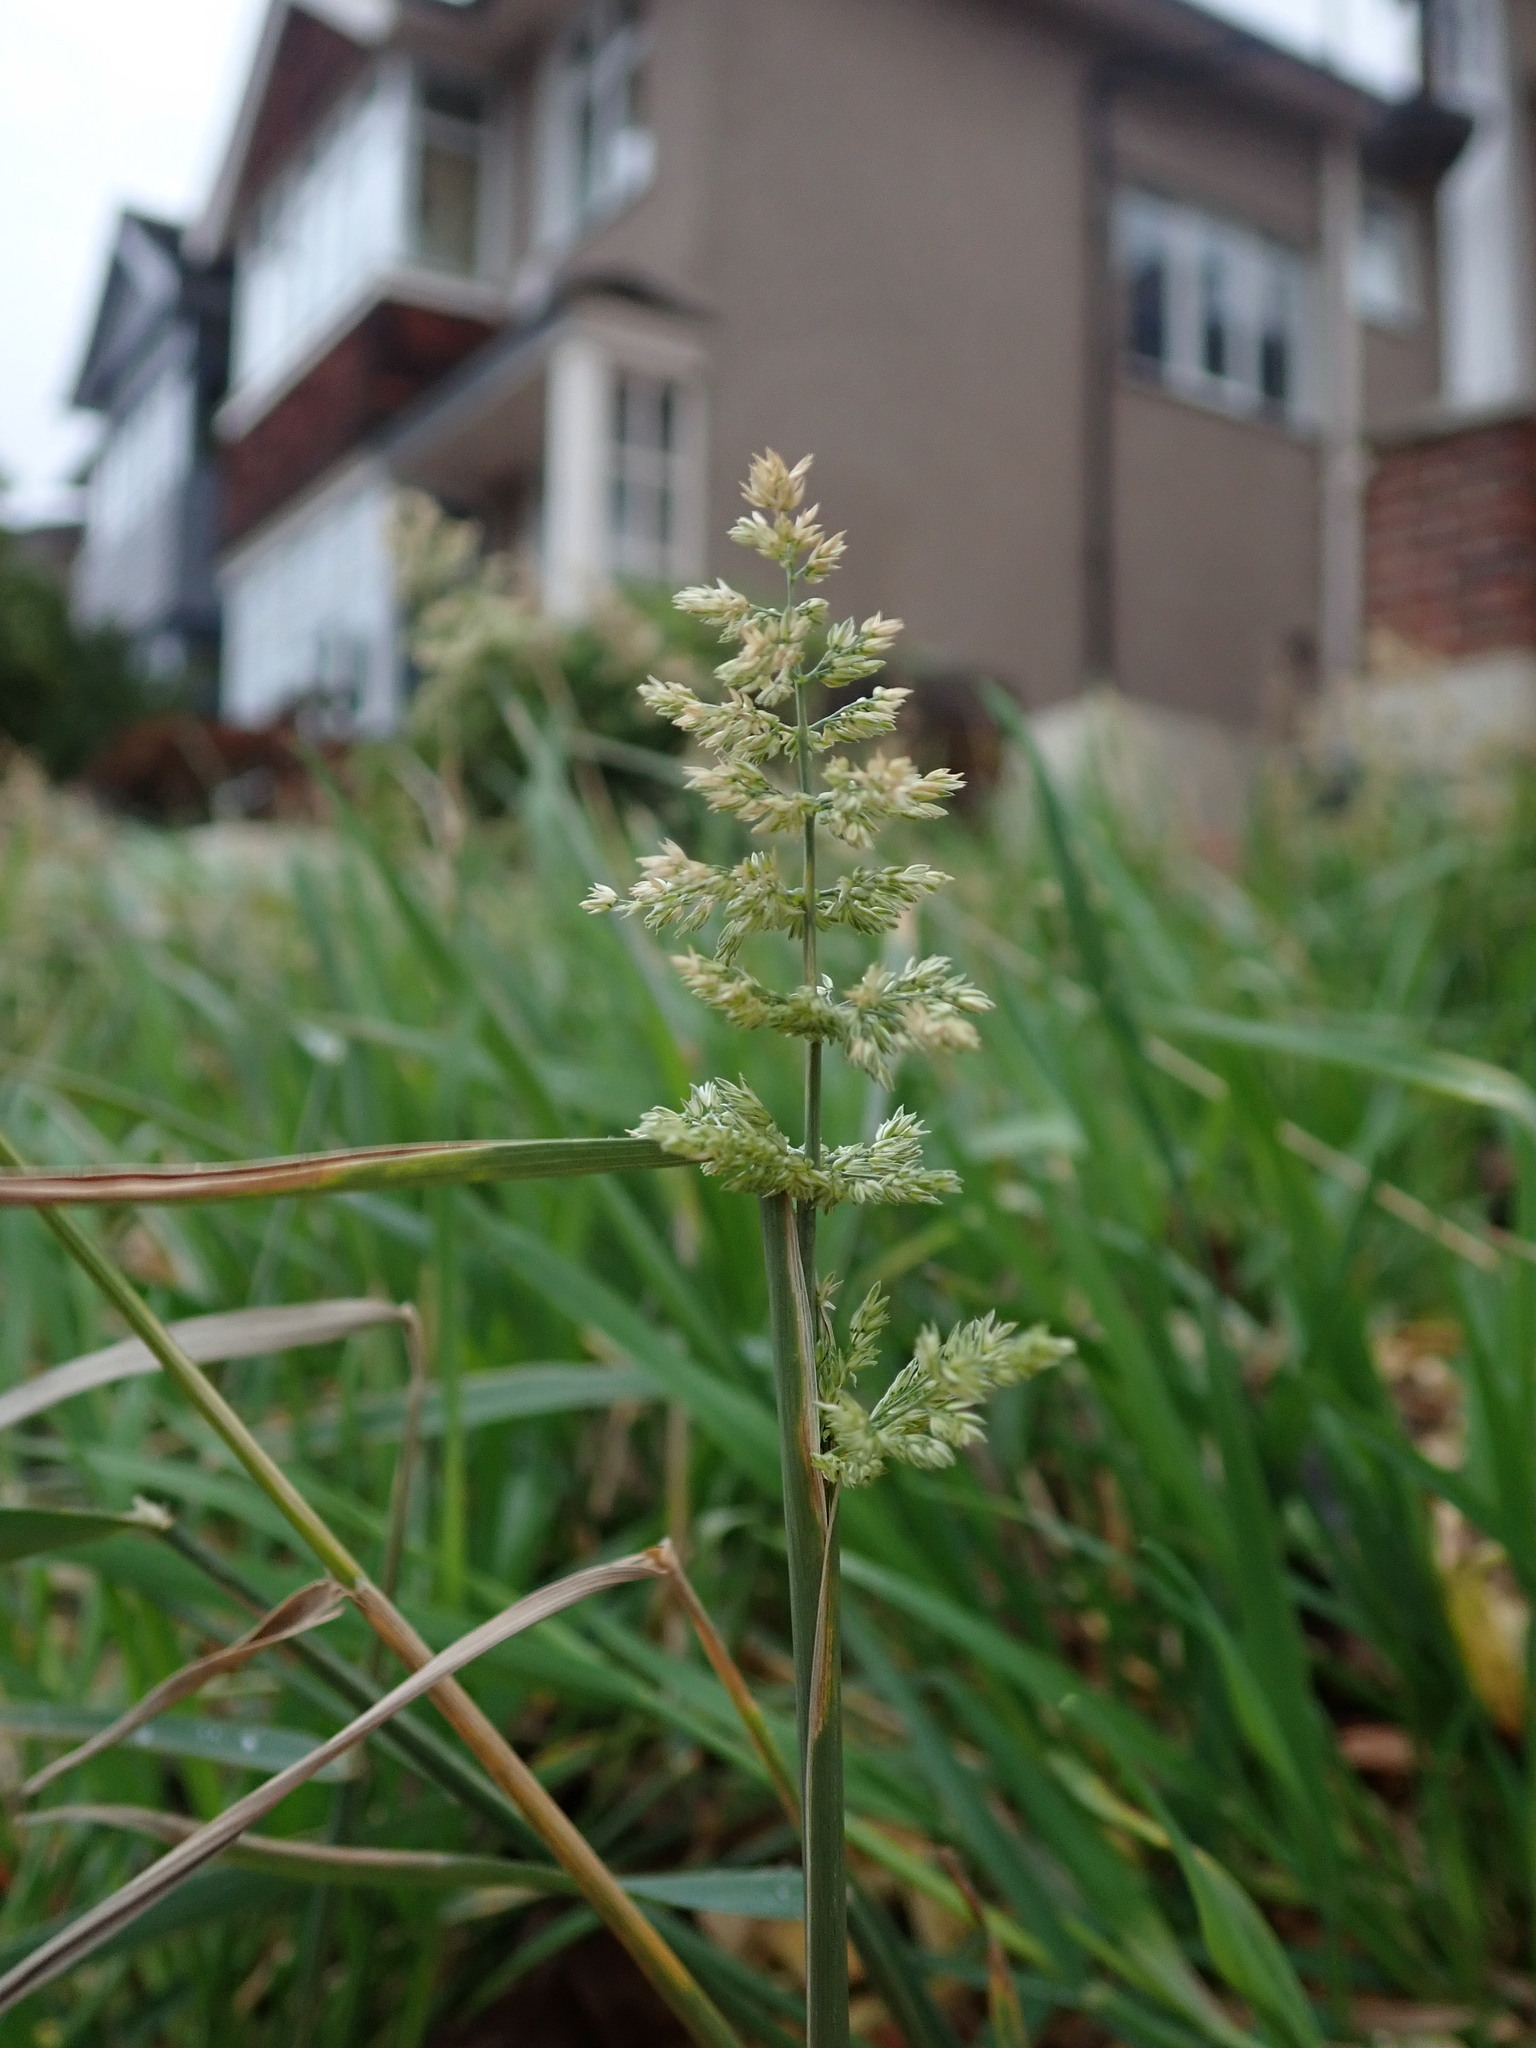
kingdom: Plantae
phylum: Tracheophyta
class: Liliopsida
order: Poales
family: Poaceae
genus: Polypogon
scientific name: Polypogon viridis
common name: Water bent
